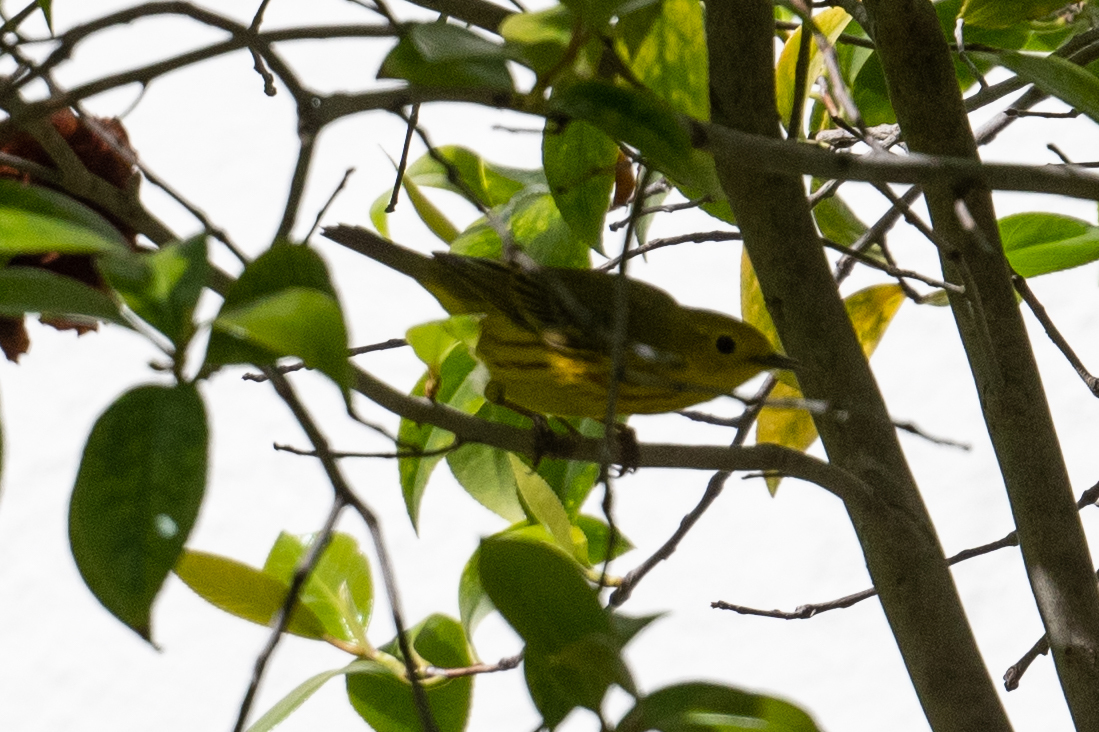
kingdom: Animalia
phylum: Chordata
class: Aves
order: Passeriformes
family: Parulidae
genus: Setophaga
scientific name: Setophaga petechia
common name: Yellow warbler
